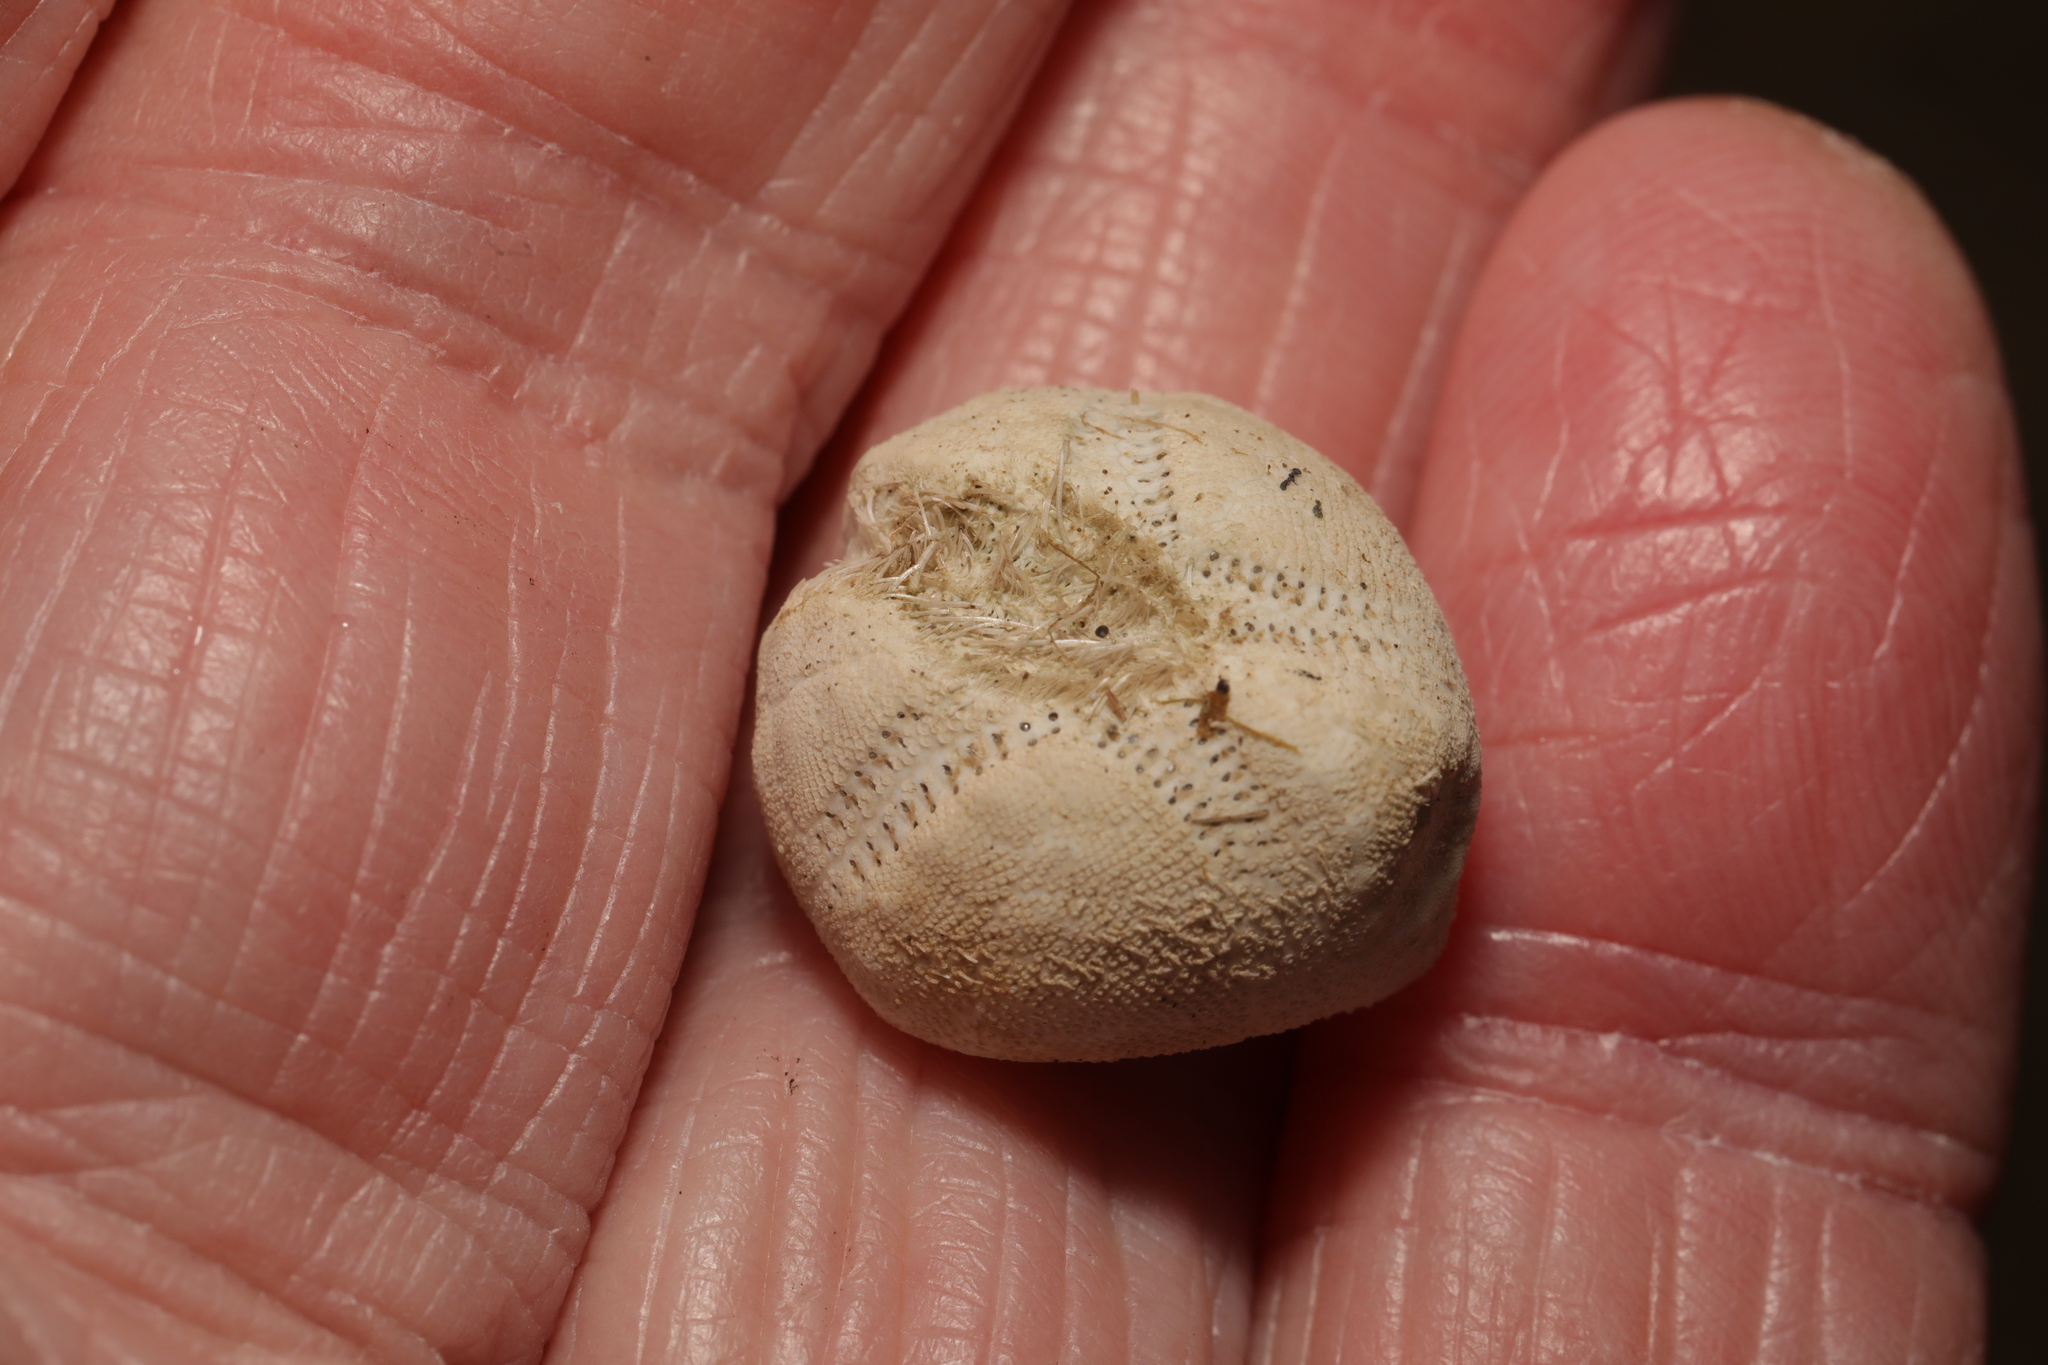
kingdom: Animalia
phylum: Echinodermata
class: Echinoidea
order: Spatangoida
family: Loveniidae
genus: Echinocardium
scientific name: Echinocardium cordatum
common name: Heart-urchin
